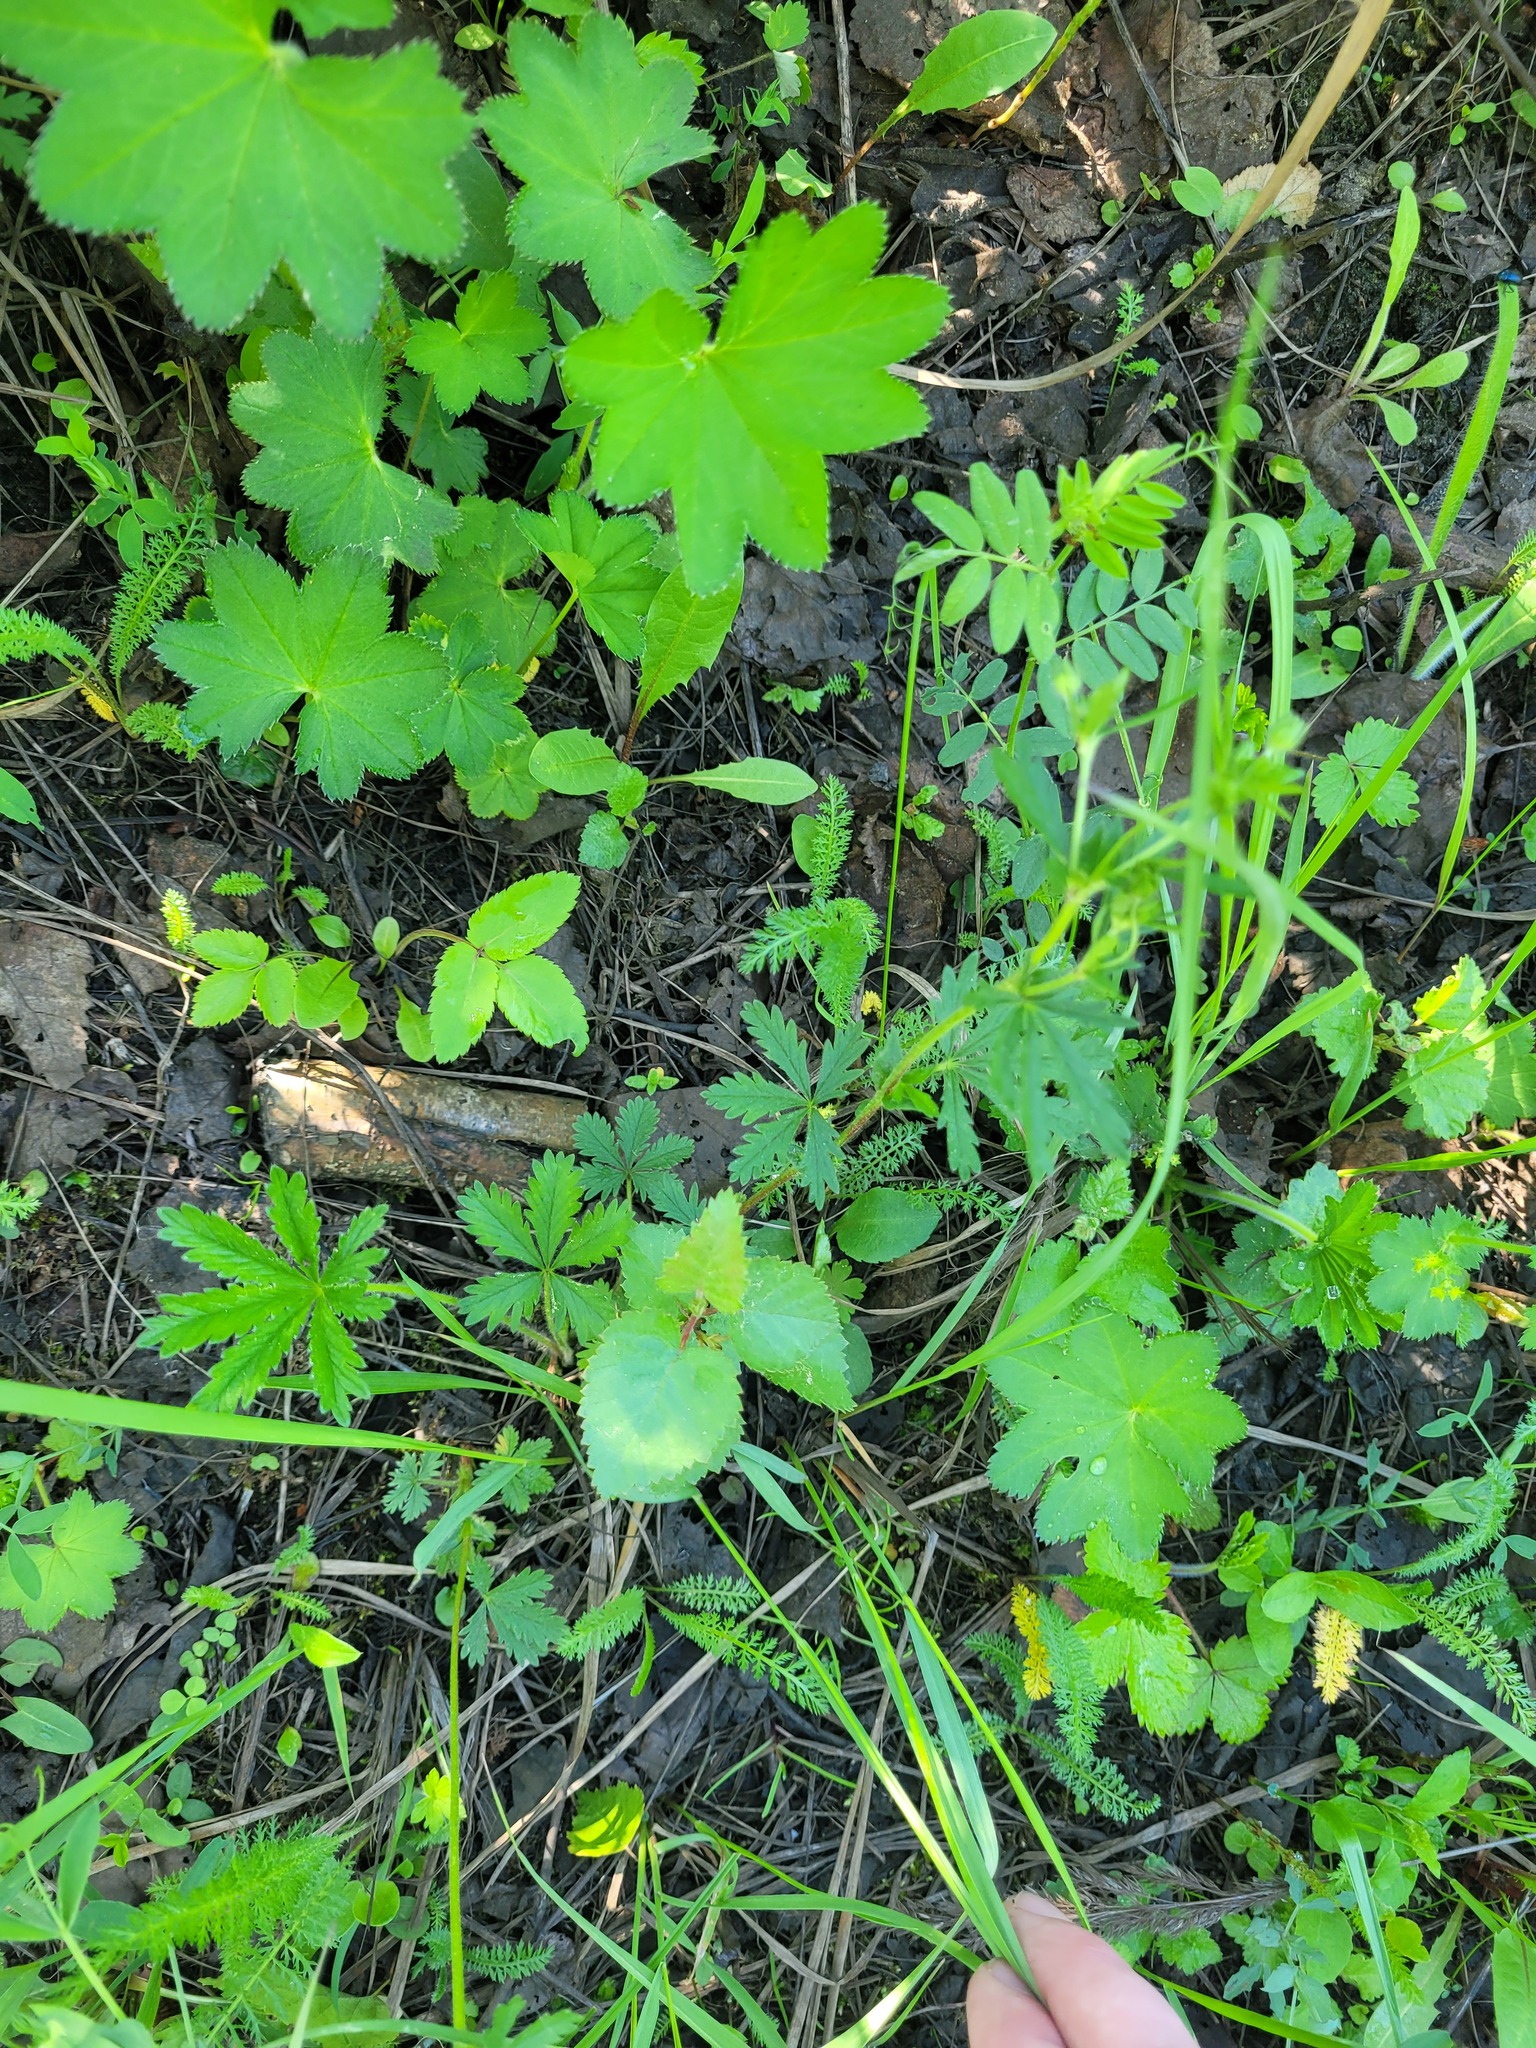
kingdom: Plantae
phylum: Tracheophyta
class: Magnoliopsida
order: Rosales
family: Rosaceae
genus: Potentilla
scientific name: Potentilla thuringiaca
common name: European cinquefoil
